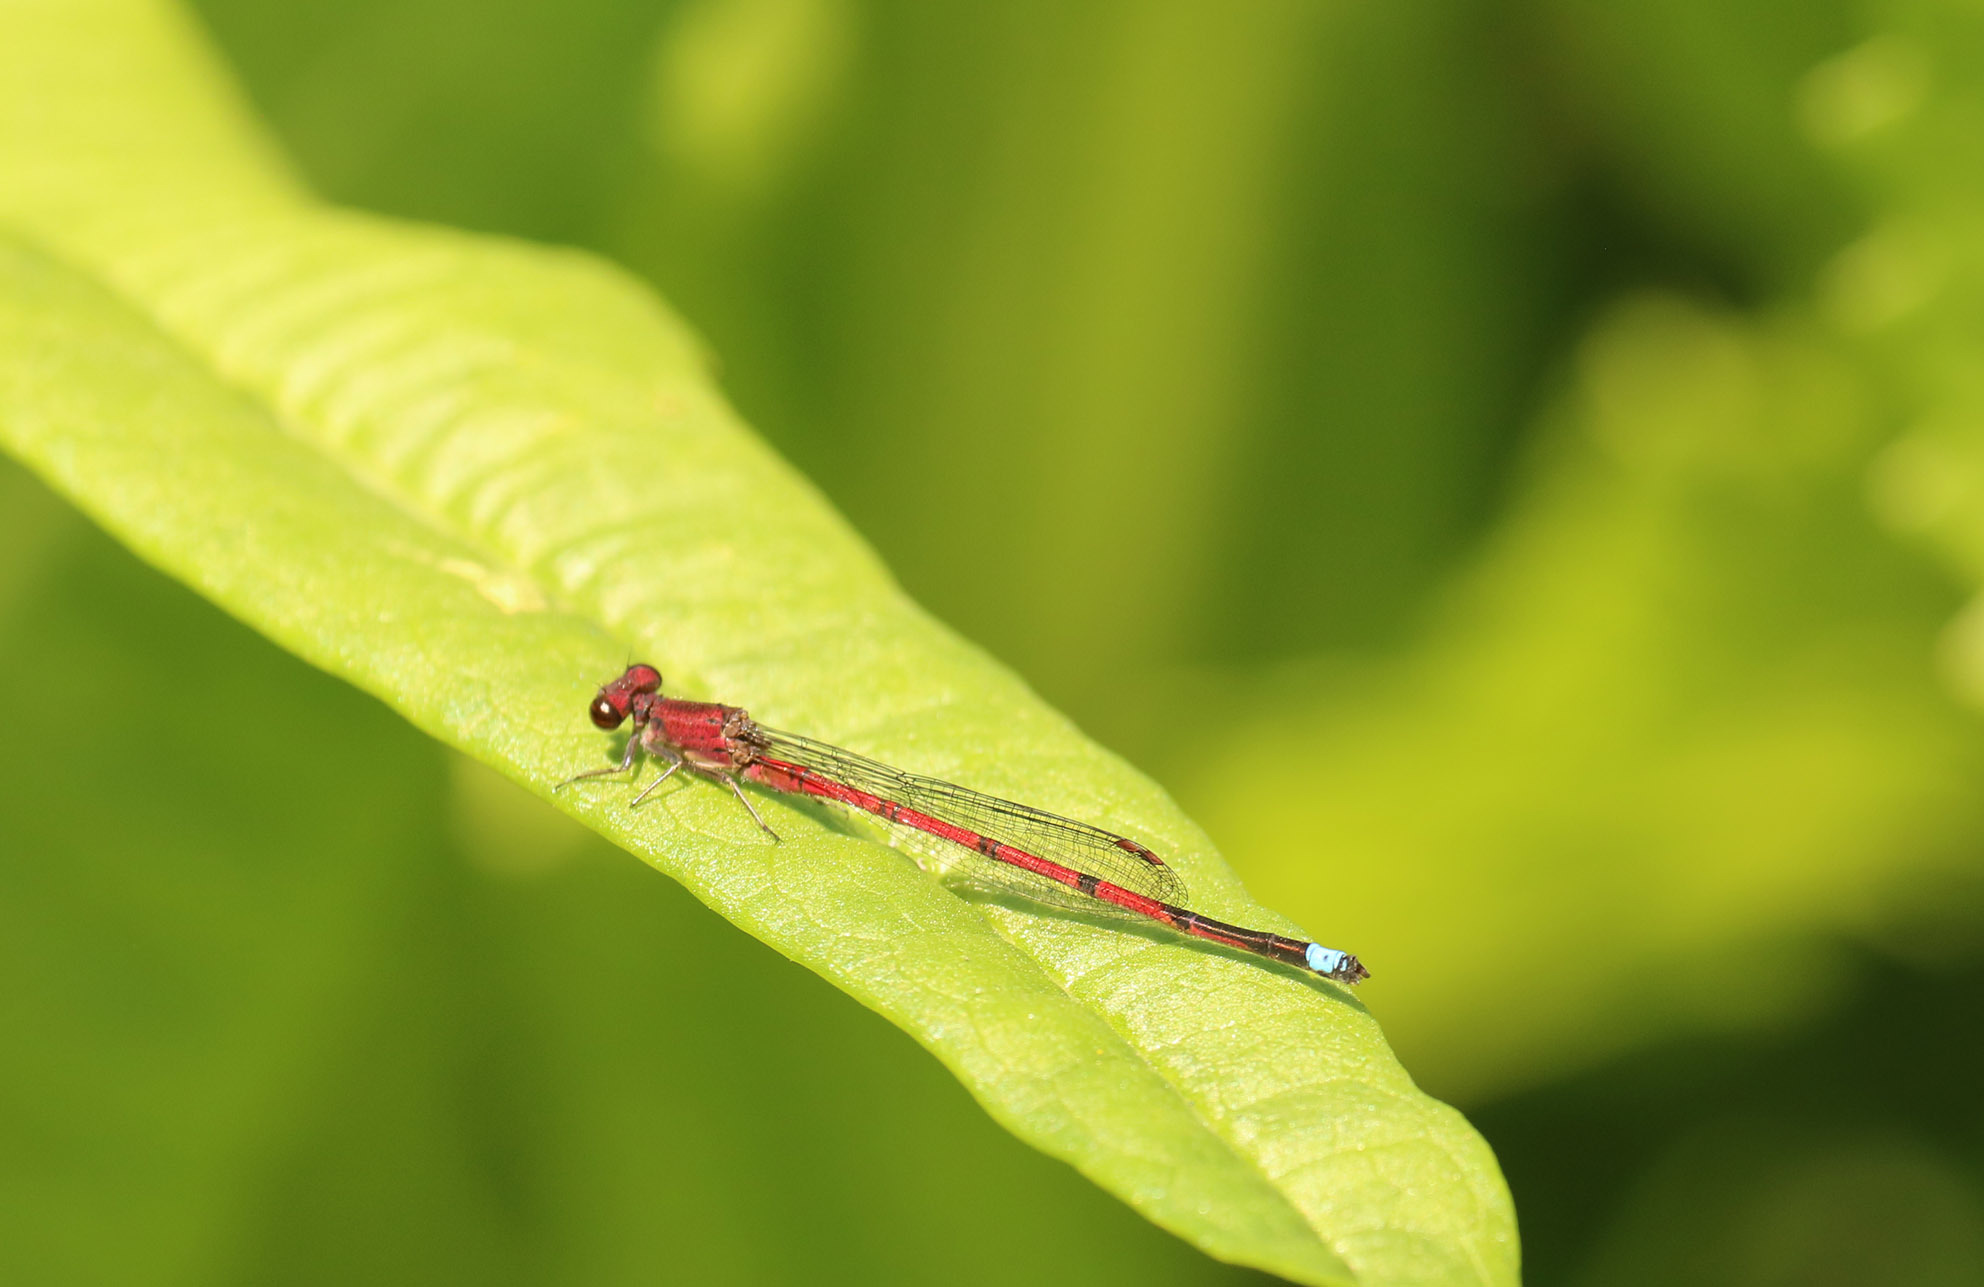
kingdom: Animalia
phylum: Arthropoda
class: Insecta
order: Odonata
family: Coenagrionidae
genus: Oxyagrion
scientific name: Oxyagrion terminale
